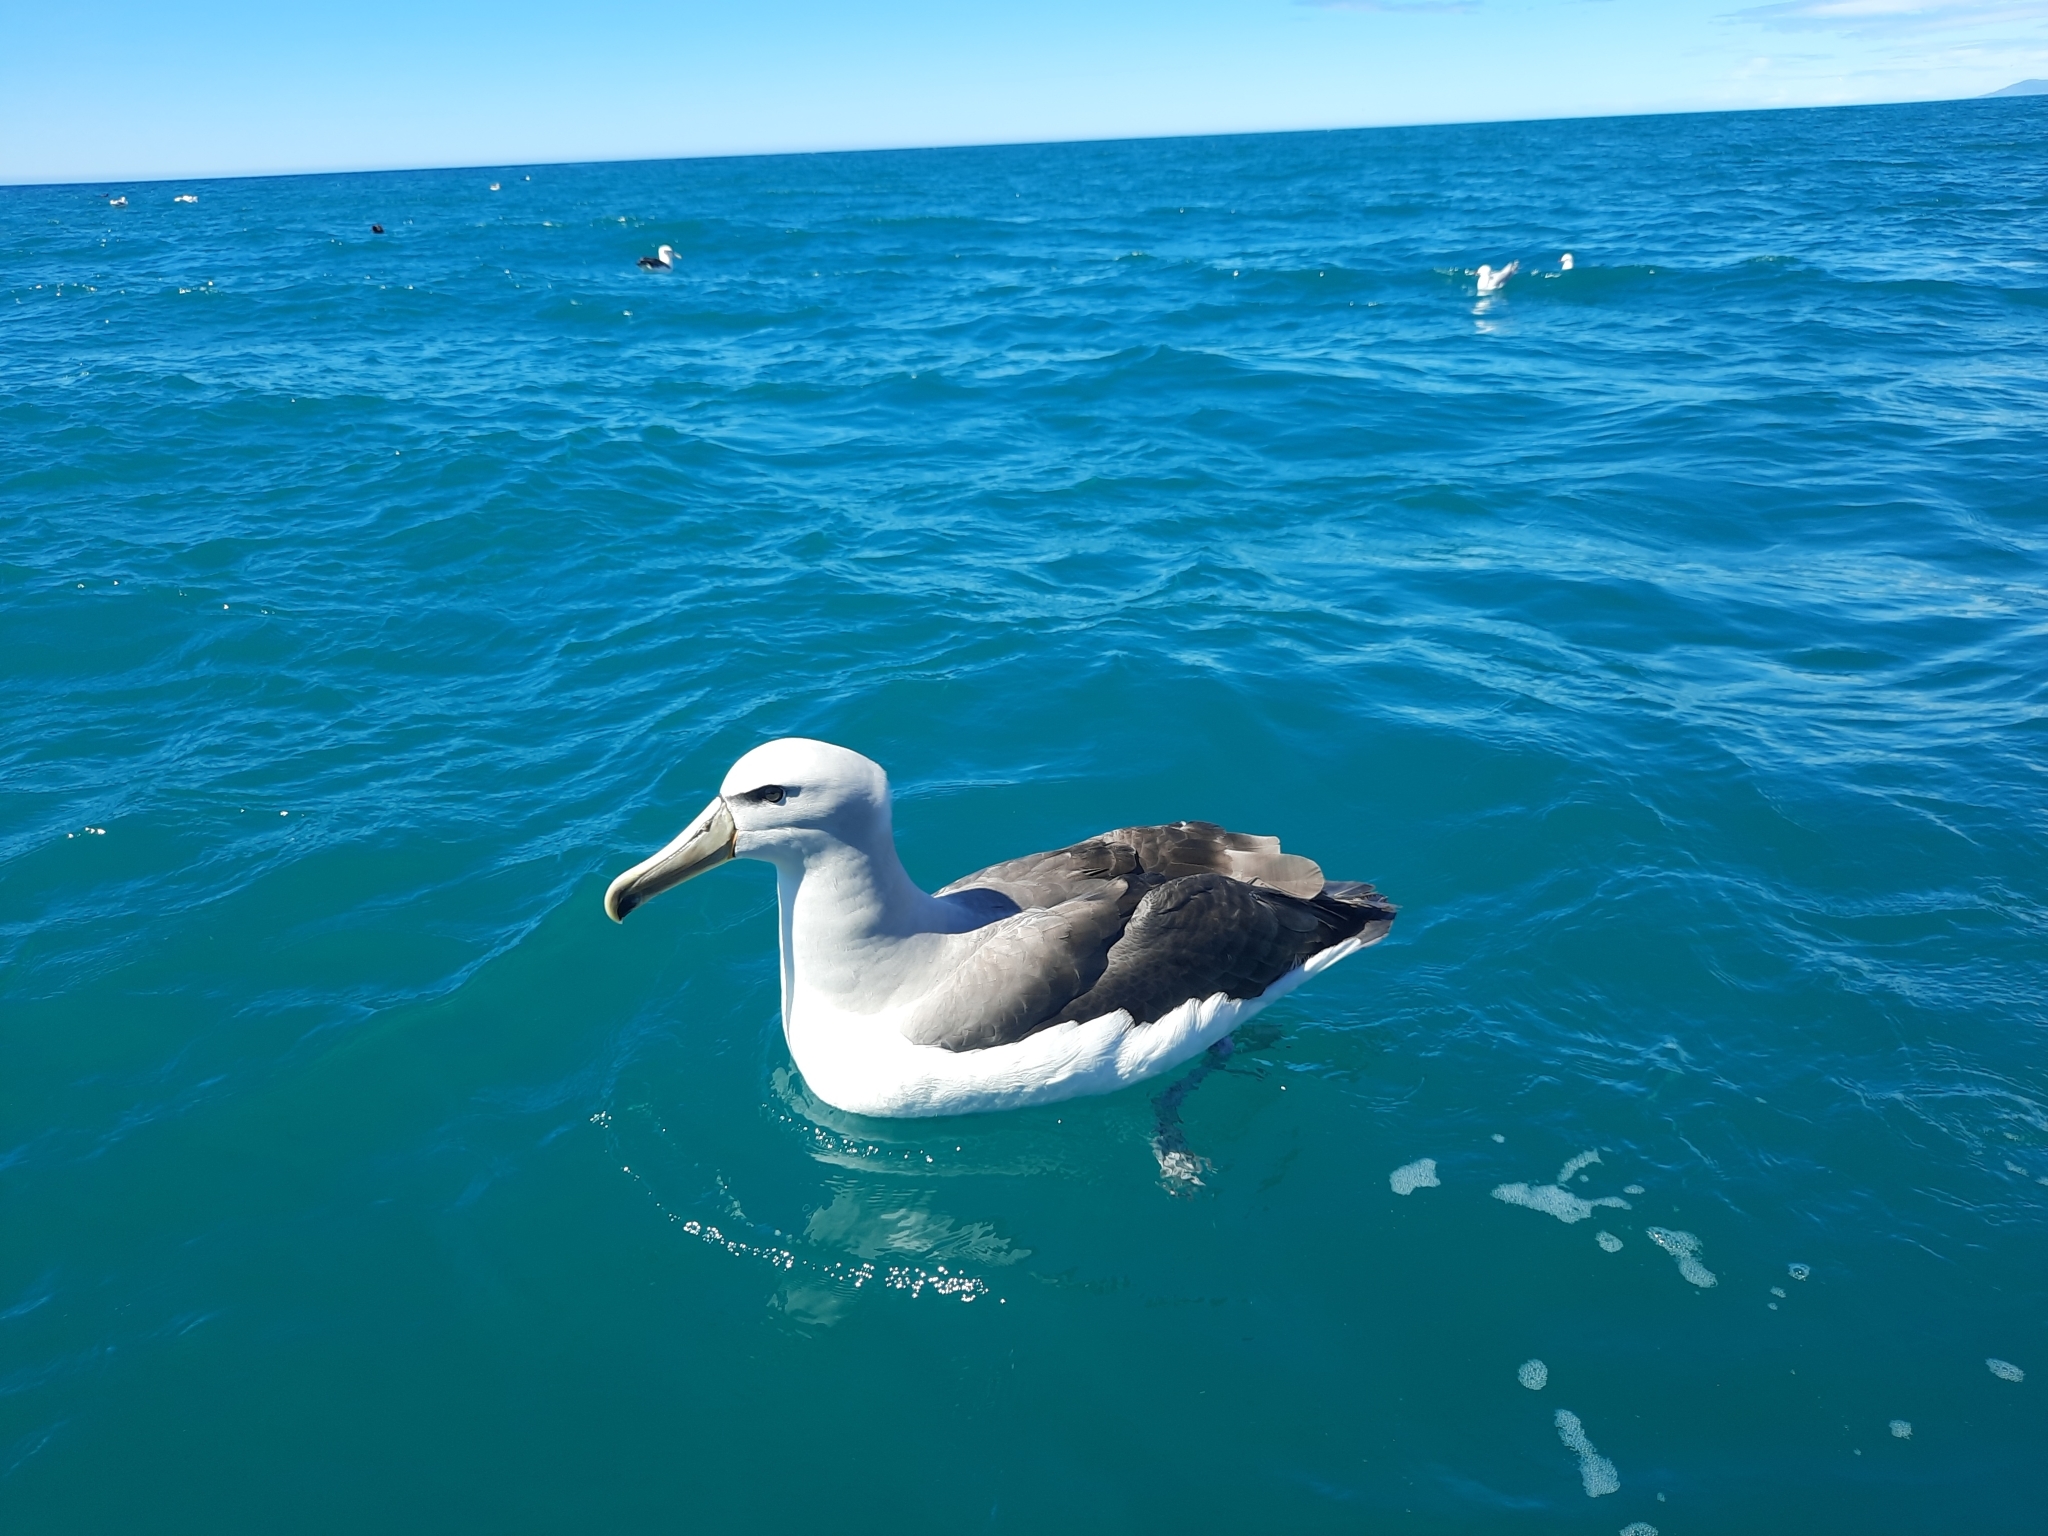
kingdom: Animalia
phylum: Chordata
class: Aves
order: Procellariiformes
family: Diomedeidae
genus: Thalassarche
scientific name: Thalassarche salvini
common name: Salvin's albatross
